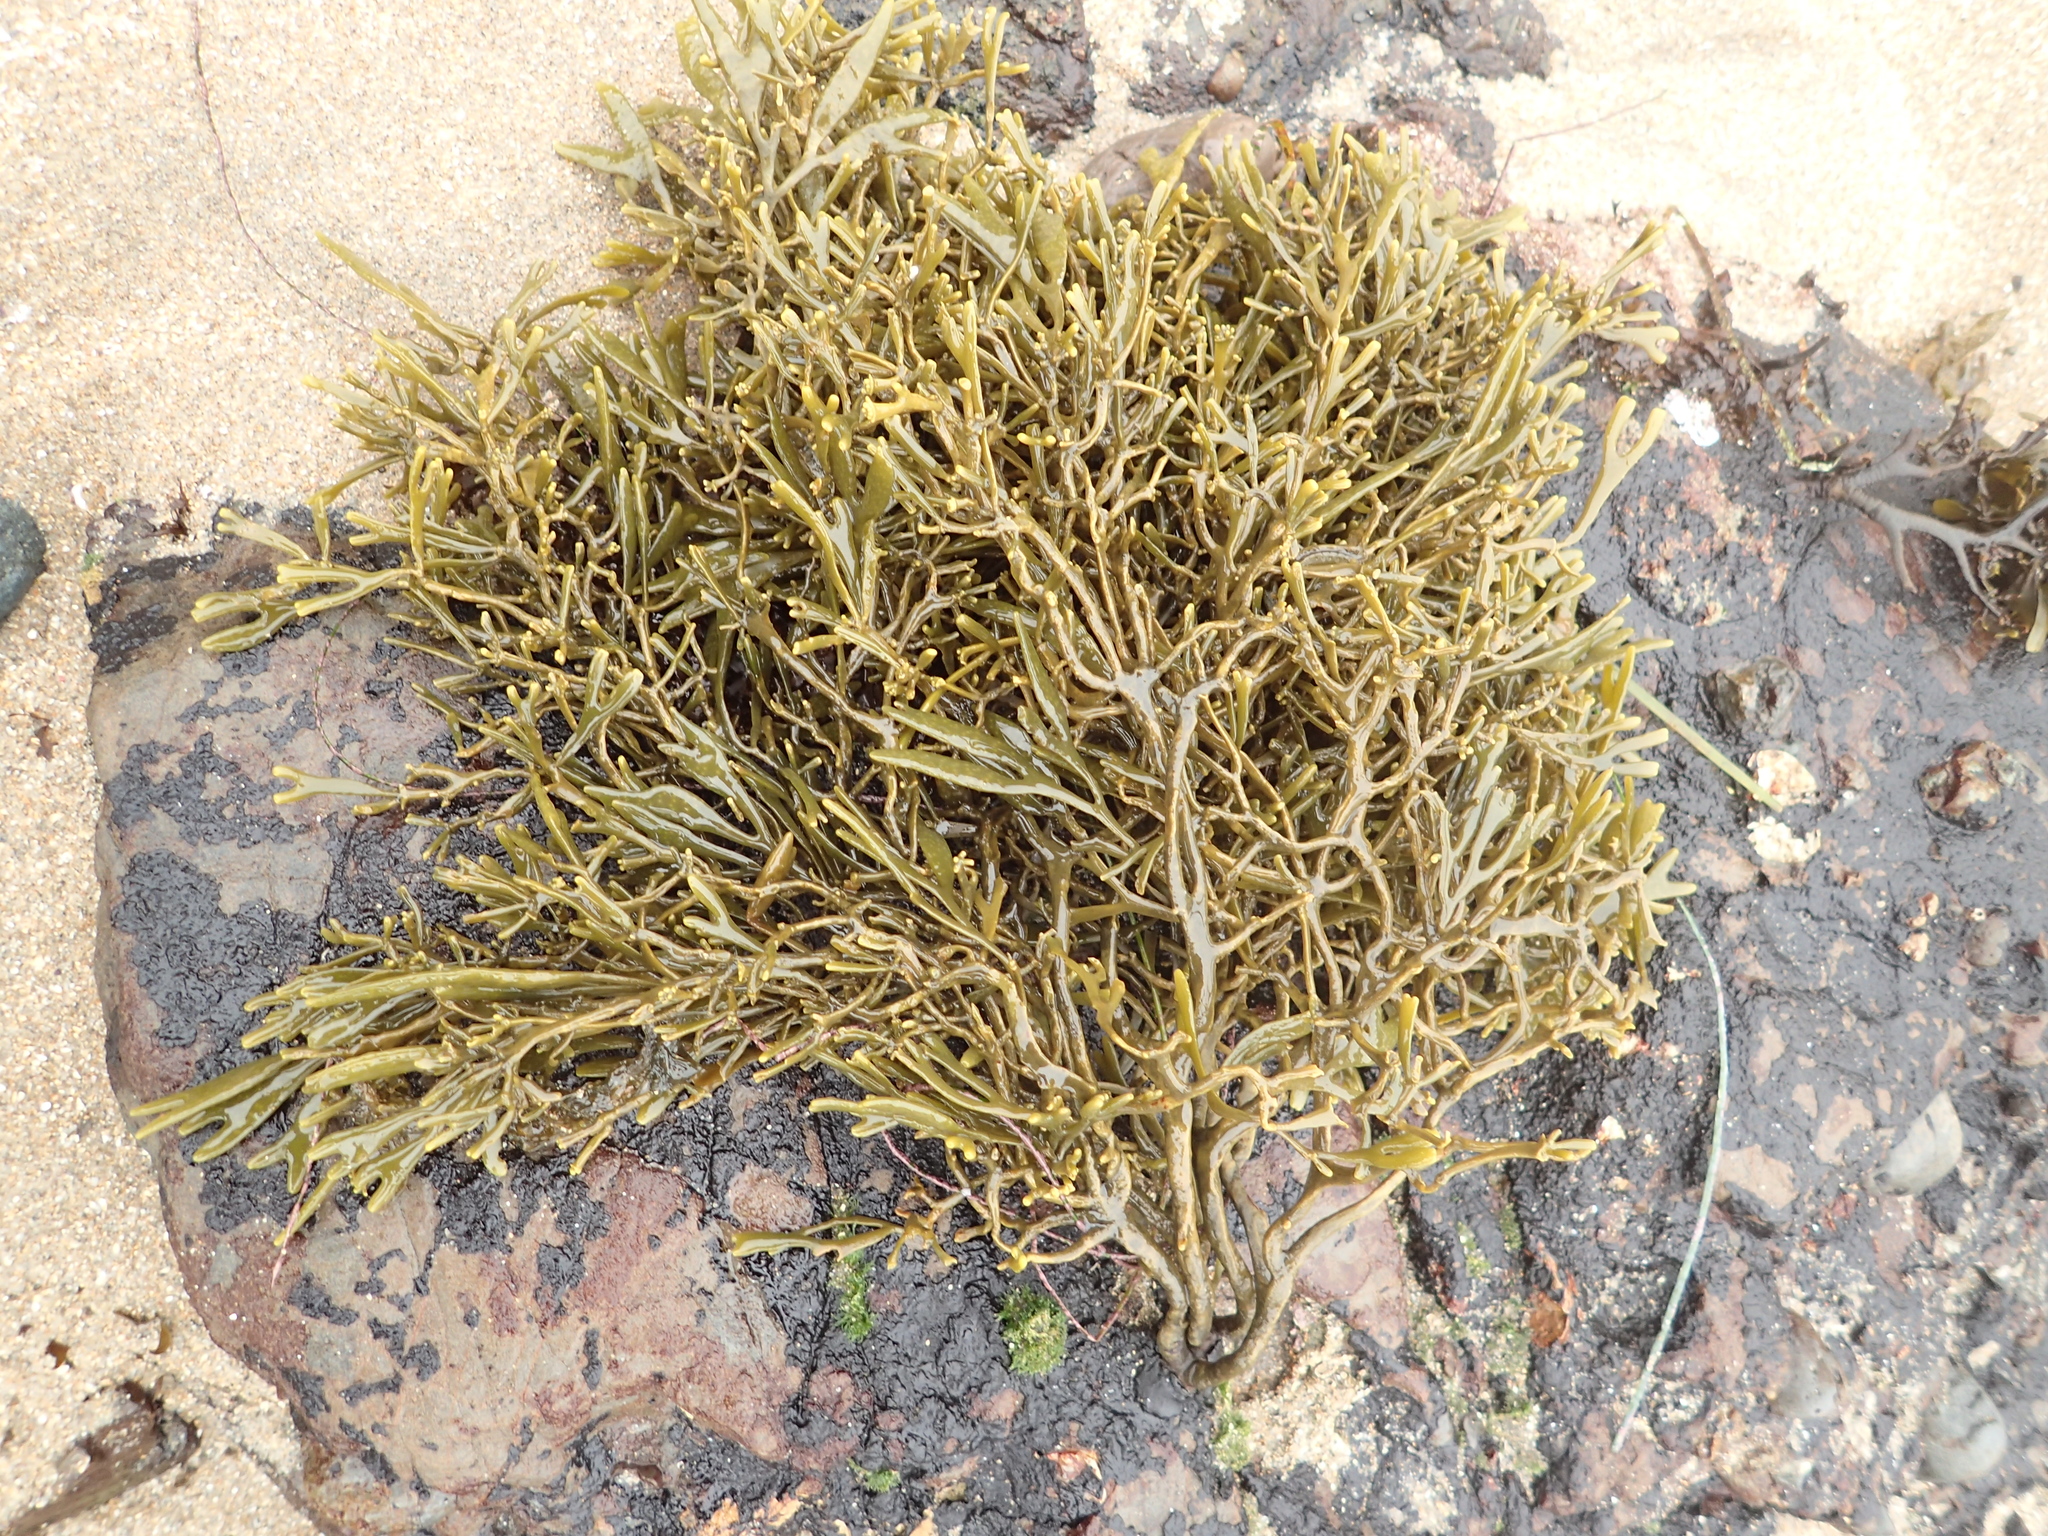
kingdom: Chromista
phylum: Ochrophyta
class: Phaeophyceae
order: Fucales
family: Fucaceae
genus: Silvetia
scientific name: Silvetia
